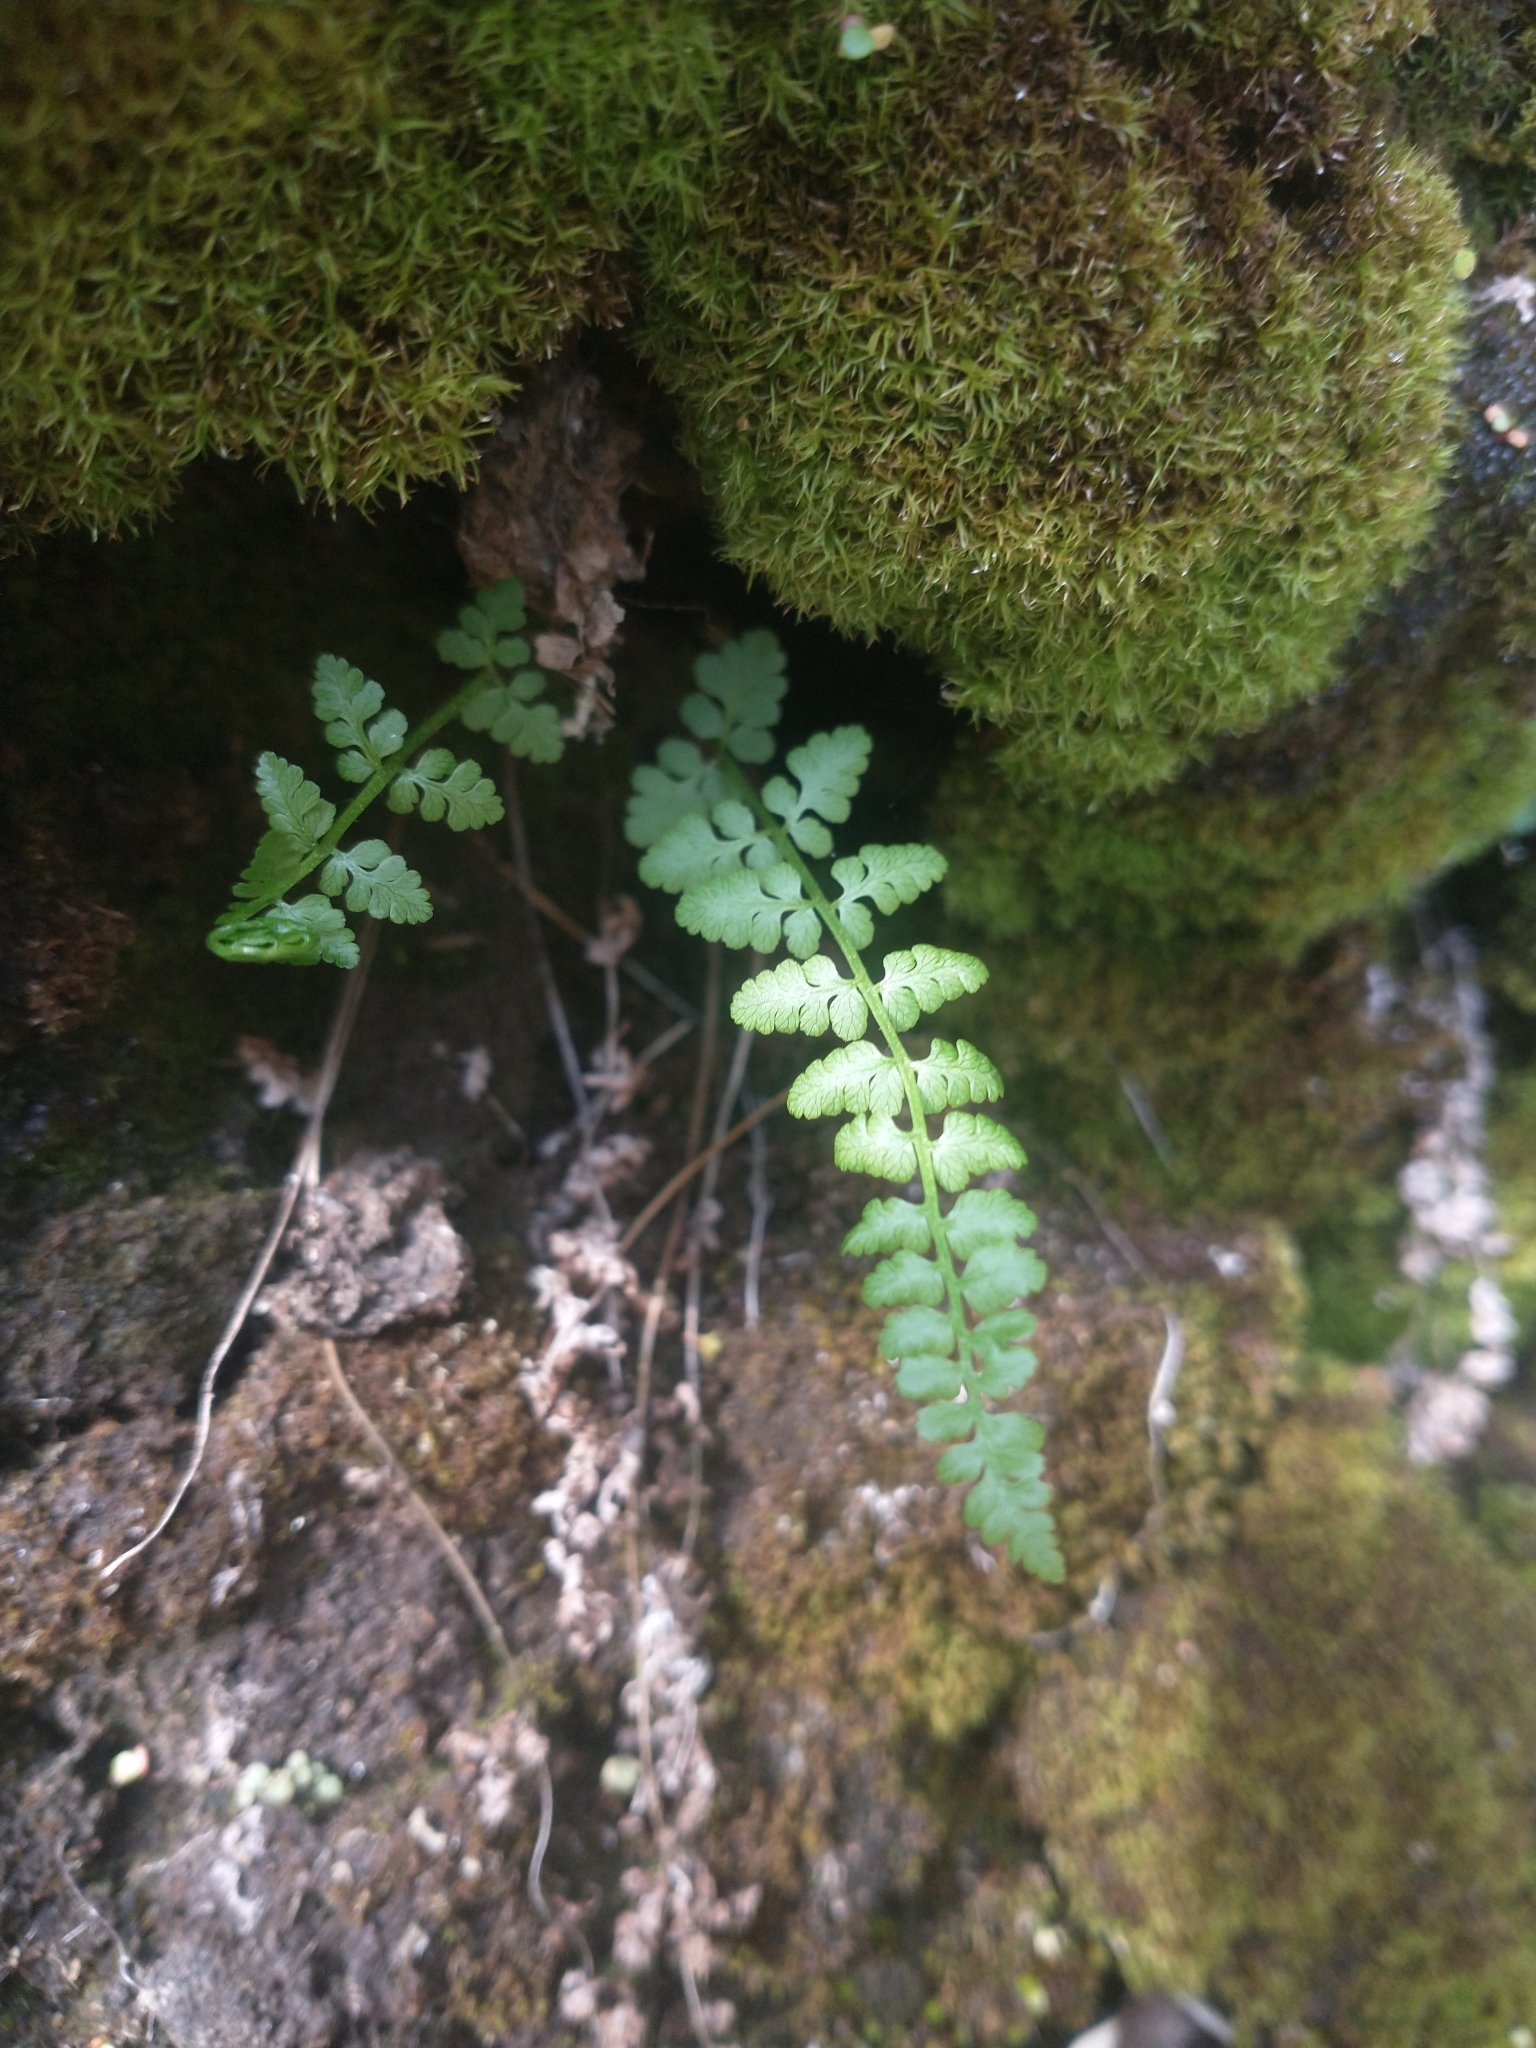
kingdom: Plantae
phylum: Tracheophyta
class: Polypodiopsida
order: Polypodiales
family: Cystopteridaceae
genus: Cystopteris
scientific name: Cystopteris fragilis
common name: Brittle bladder fern
